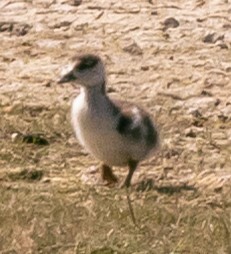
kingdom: Animalia
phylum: Chordata
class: Aves
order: Anseriformes
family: Anatidae
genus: Alopochen
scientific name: Alopochen aegyptiaca
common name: Egyptian goose
